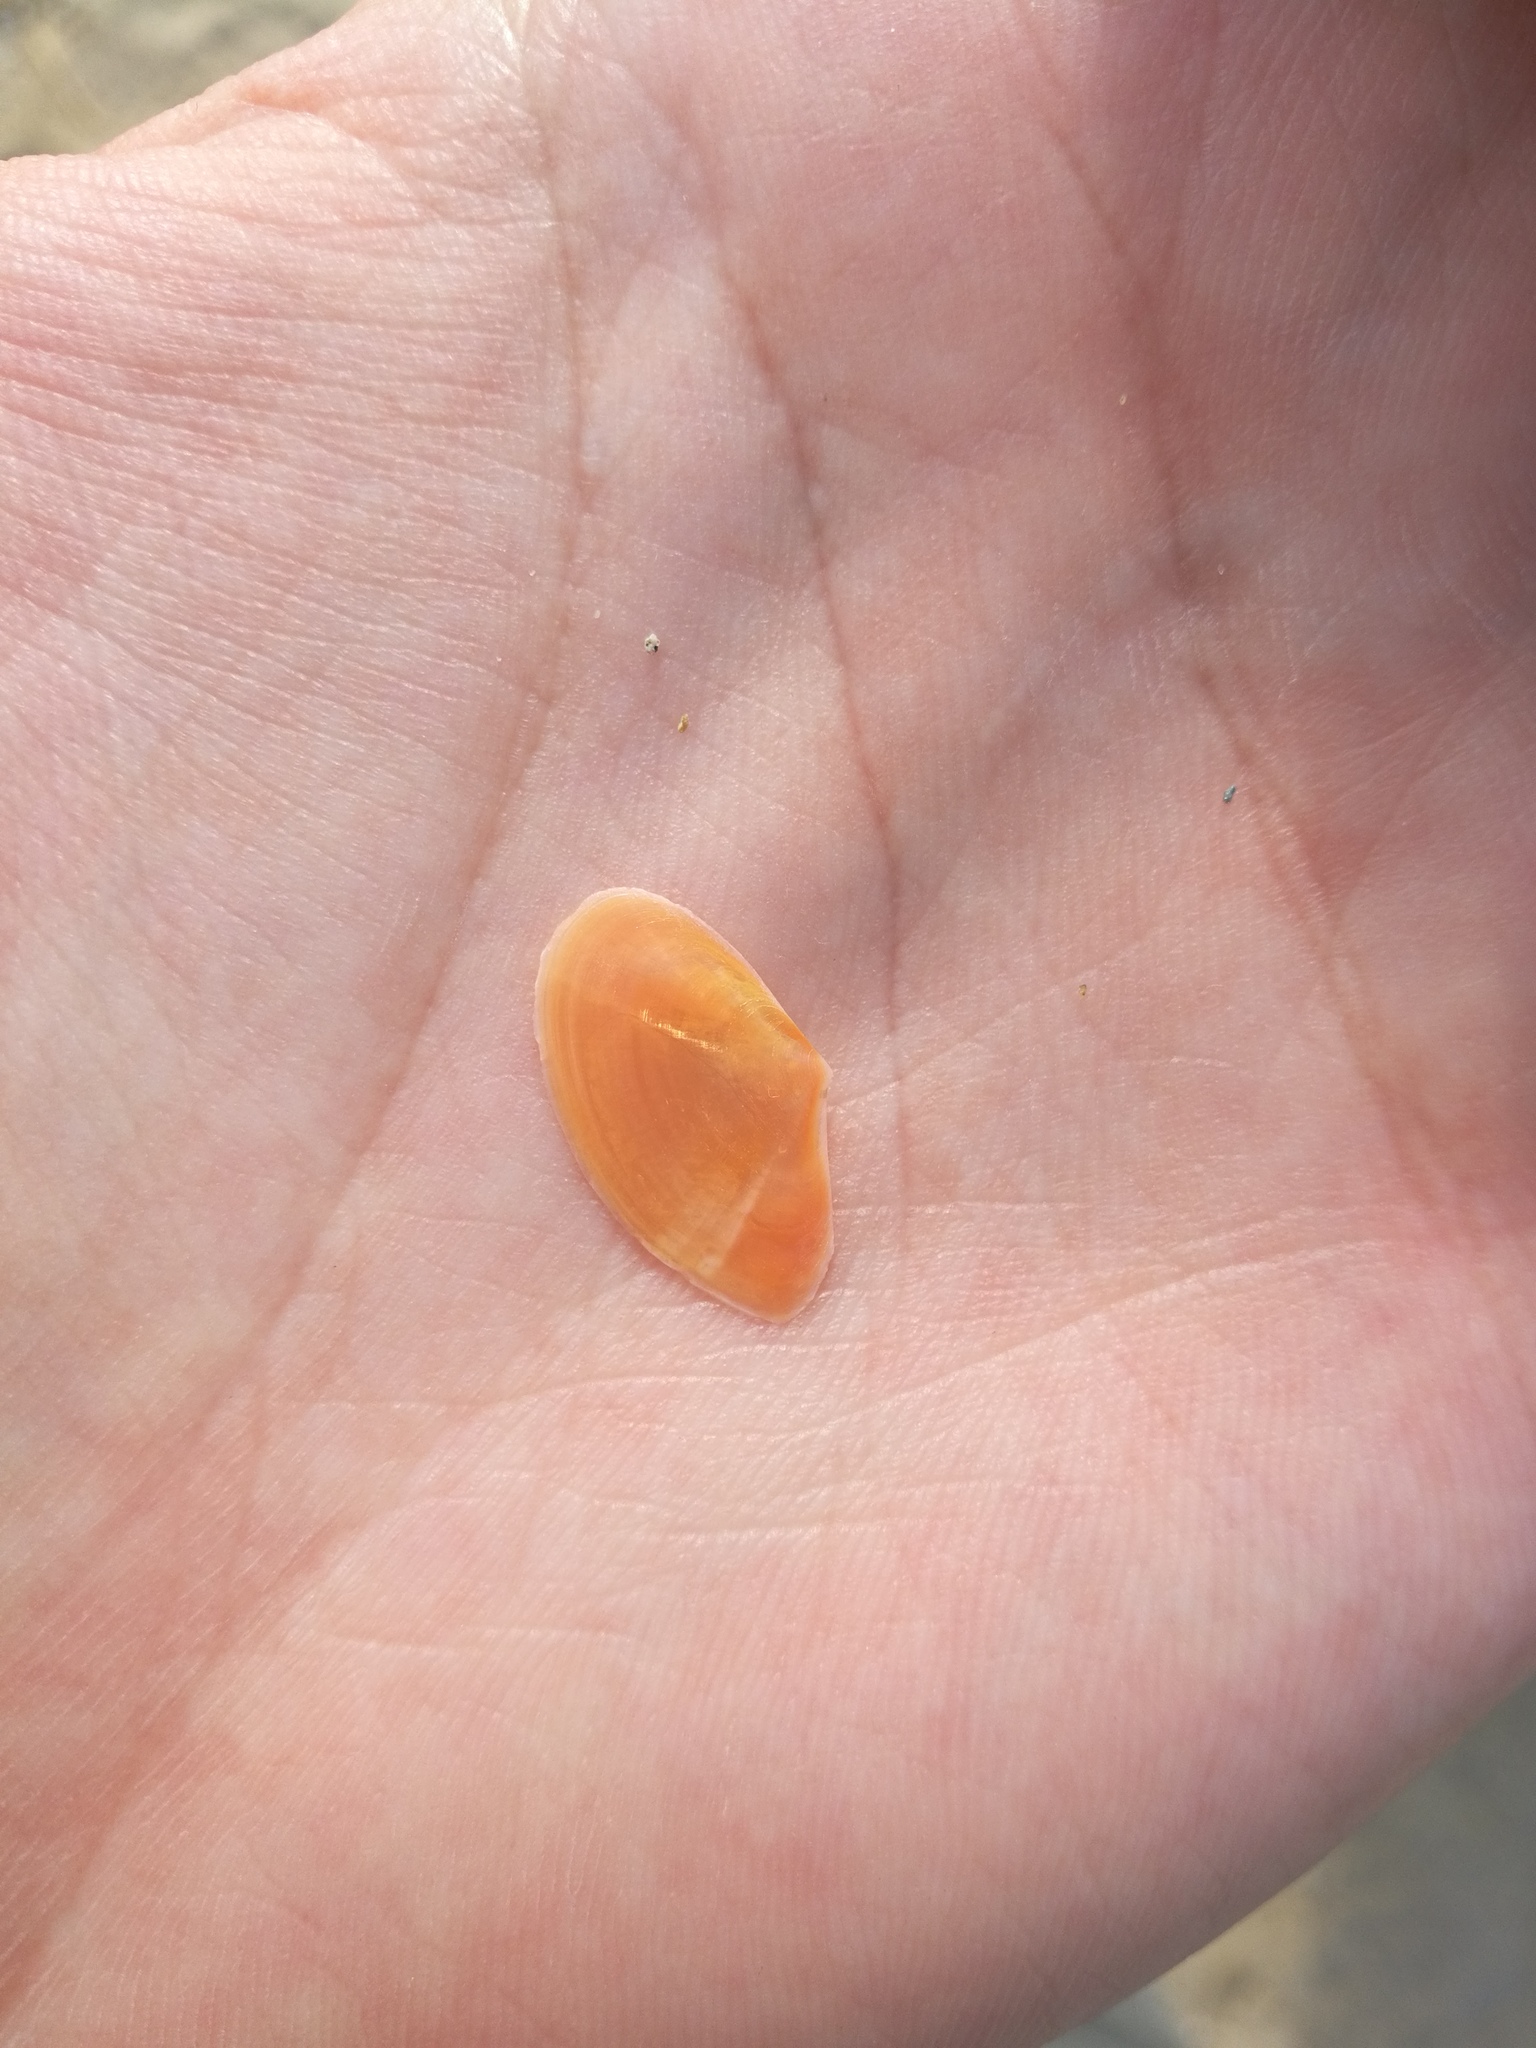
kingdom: Animalia
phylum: Mollusca
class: Bivalvia
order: Cardiida
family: Tellinidae
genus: Bosemprella
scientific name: Bosemprella incarnata
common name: Red tellin
